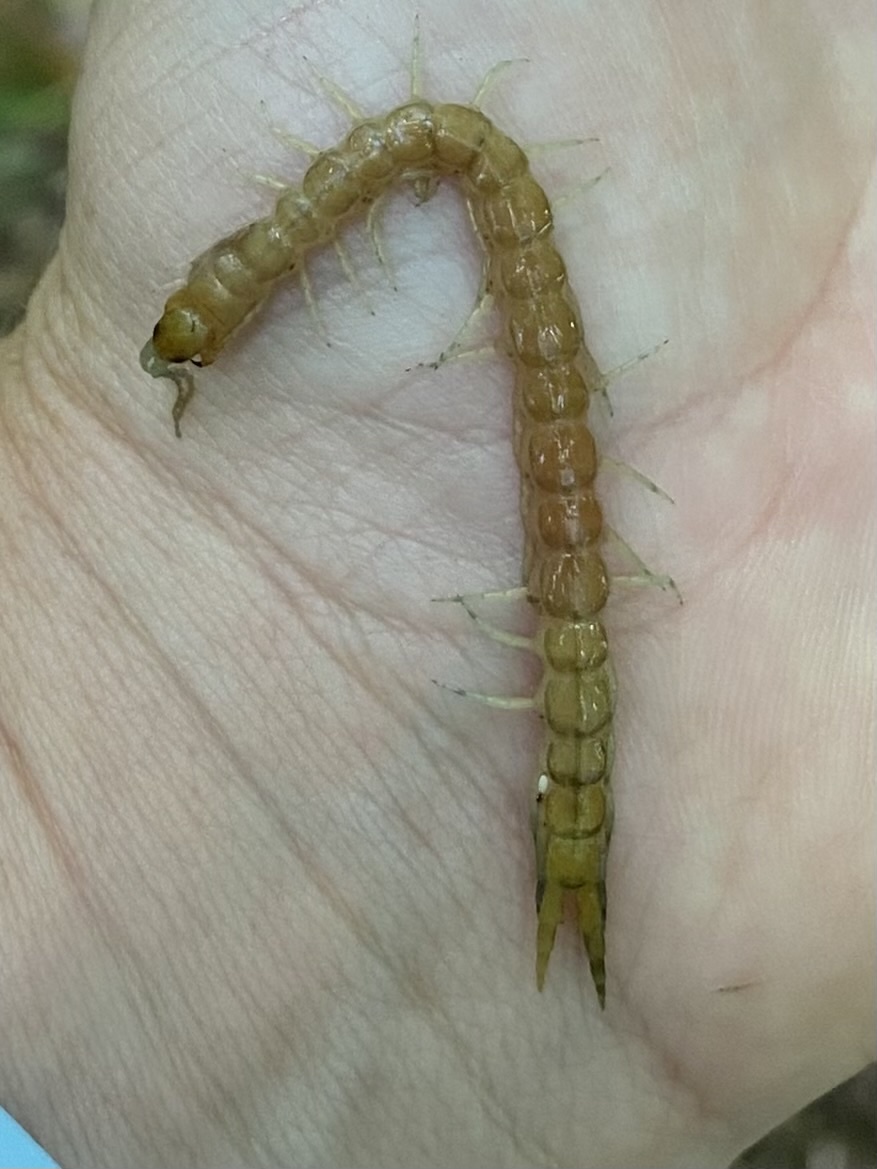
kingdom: Animalia
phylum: Arthropoda
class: Chilopoda
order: Scolopendromorpha
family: Scolopendridae
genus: Hemiscolopendra
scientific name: Hemiscolopendra marginata
